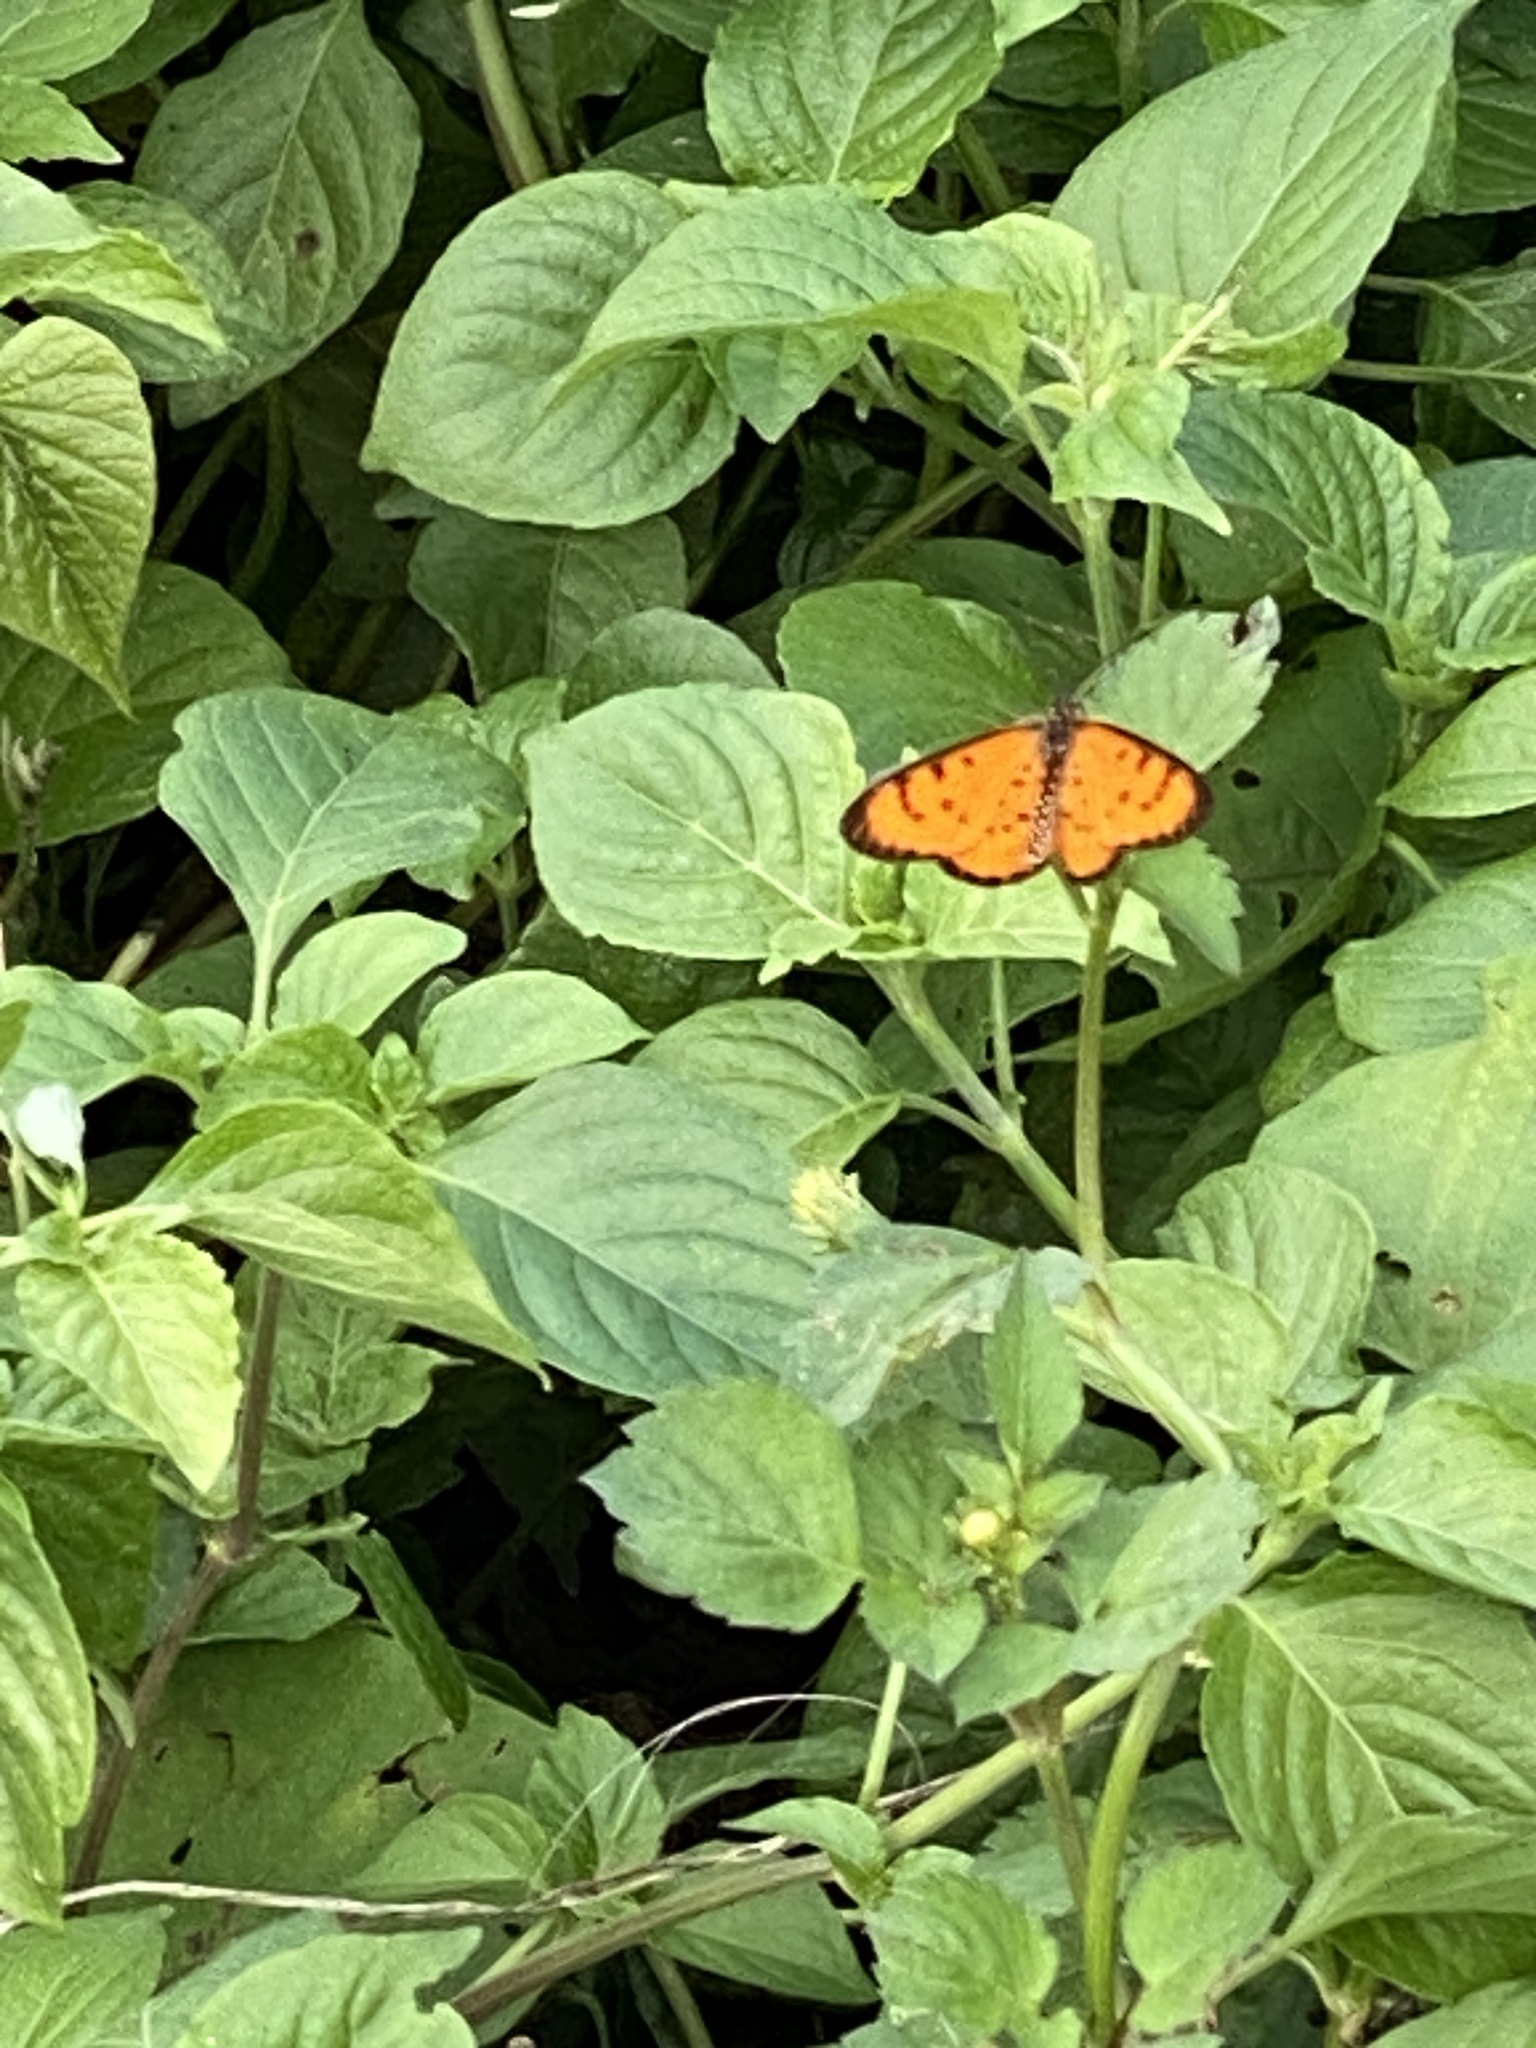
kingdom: Animalia
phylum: Arthropoda
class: Insecta
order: Lepidoptera
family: Nymphalidae
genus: Acraea
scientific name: Acraea Telchinia serena
